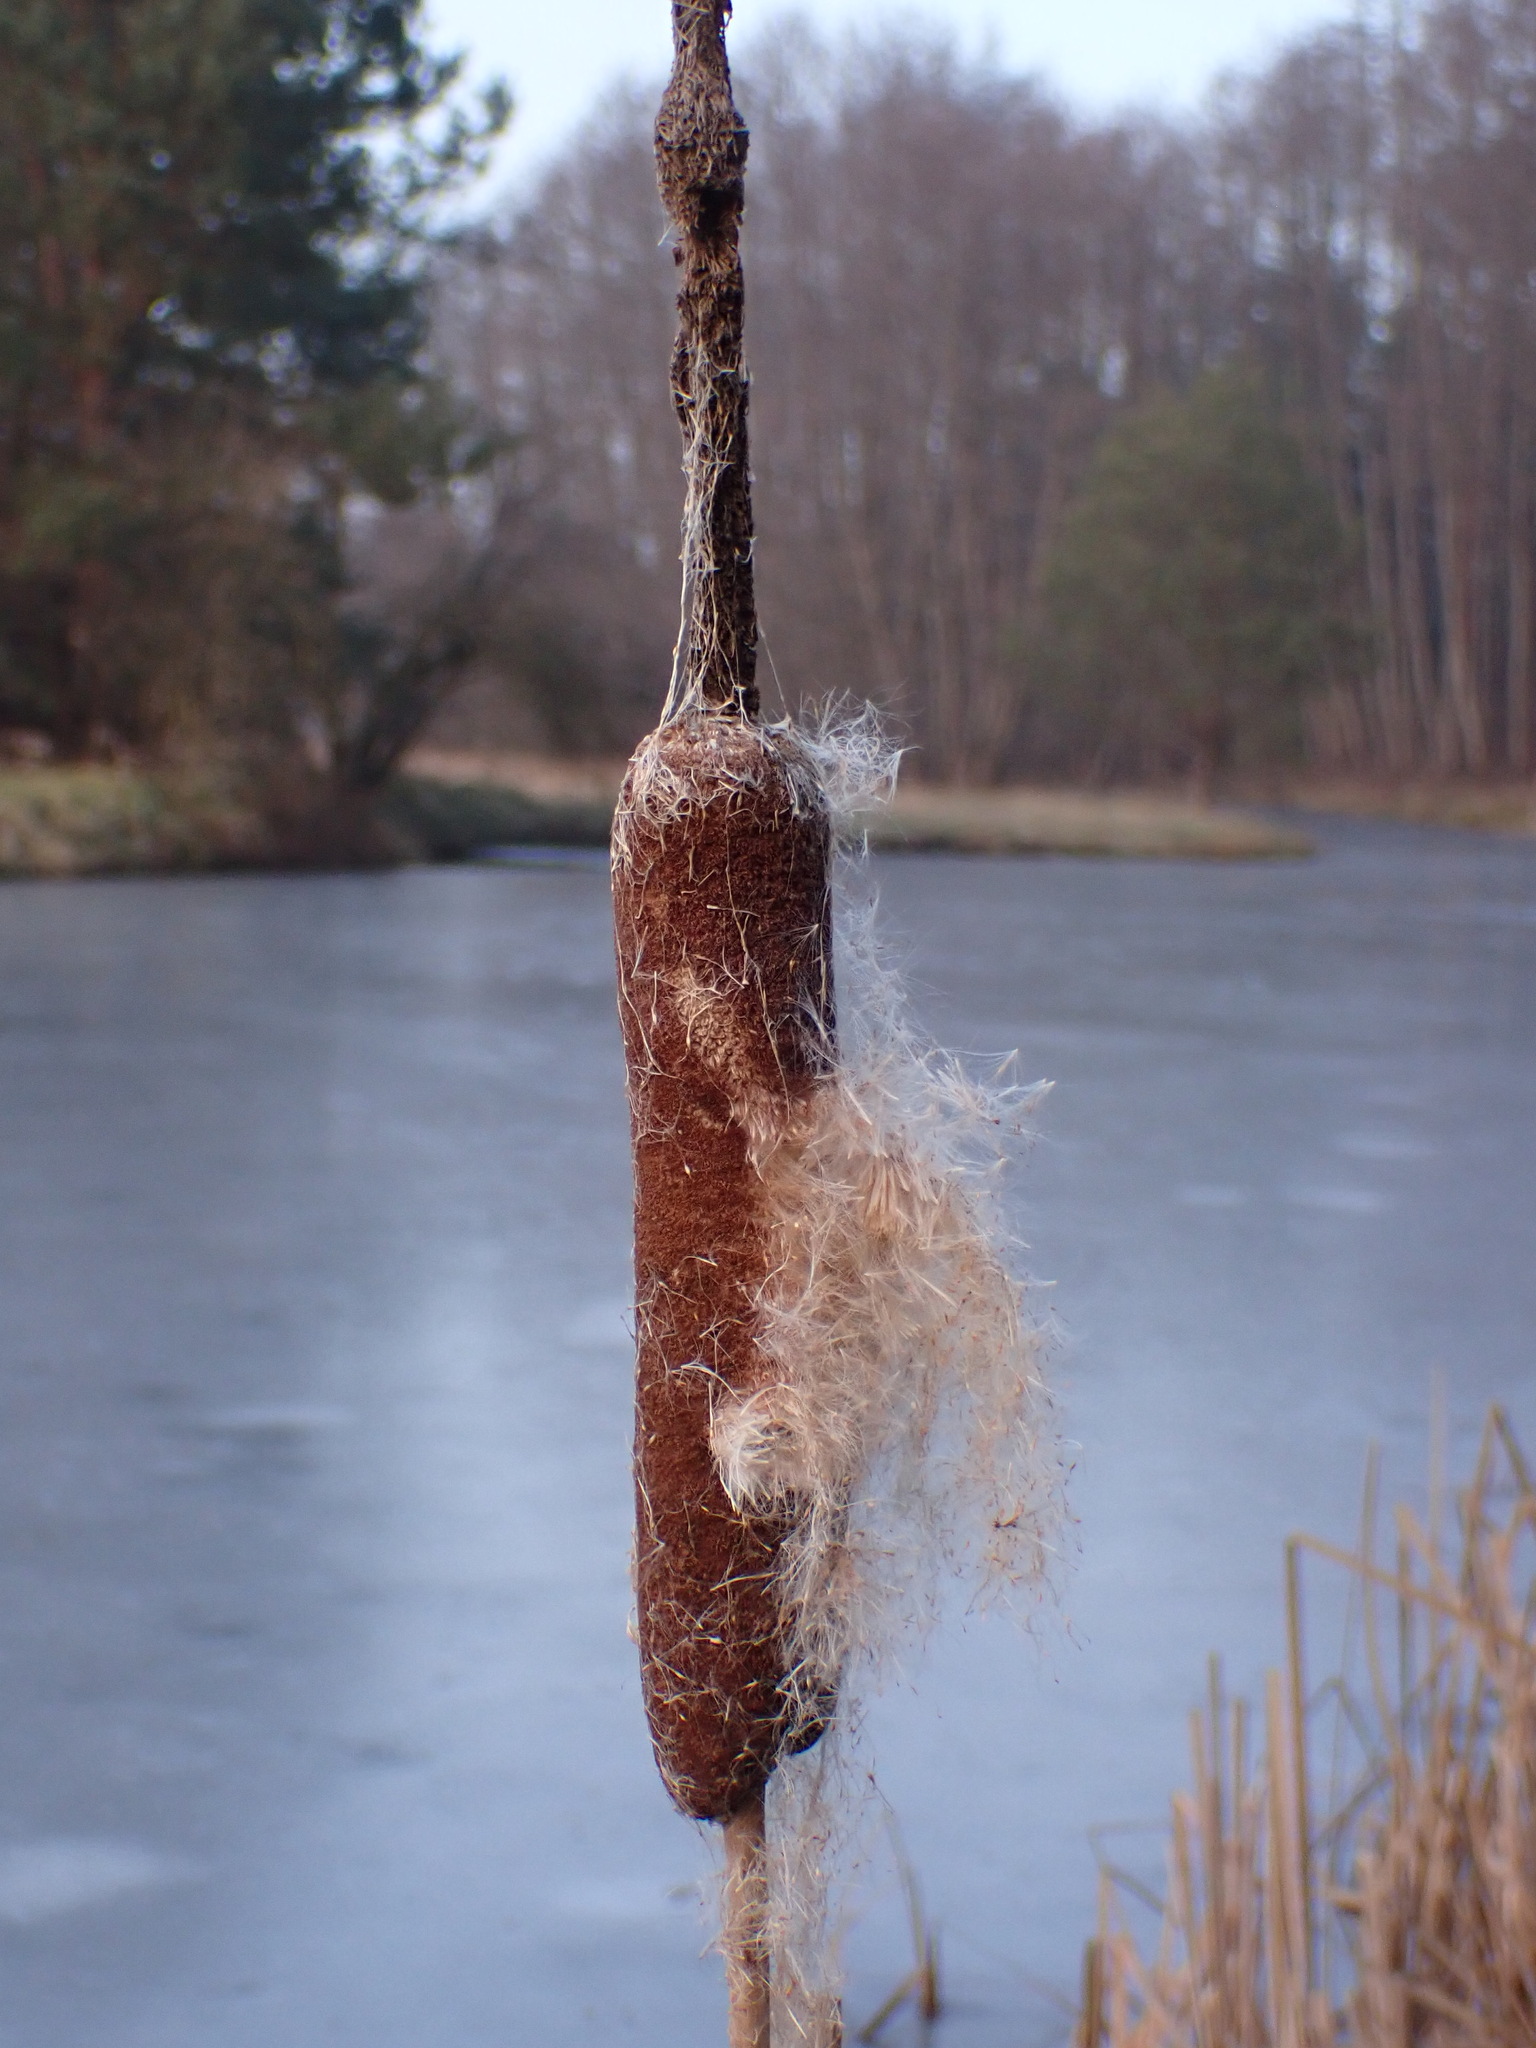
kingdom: Plantae
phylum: Tracheophyta
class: Liliopsida
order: Poales
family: Typhaceae
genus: Typha
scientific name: Typha latifolia
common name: Broadleaf cattail
